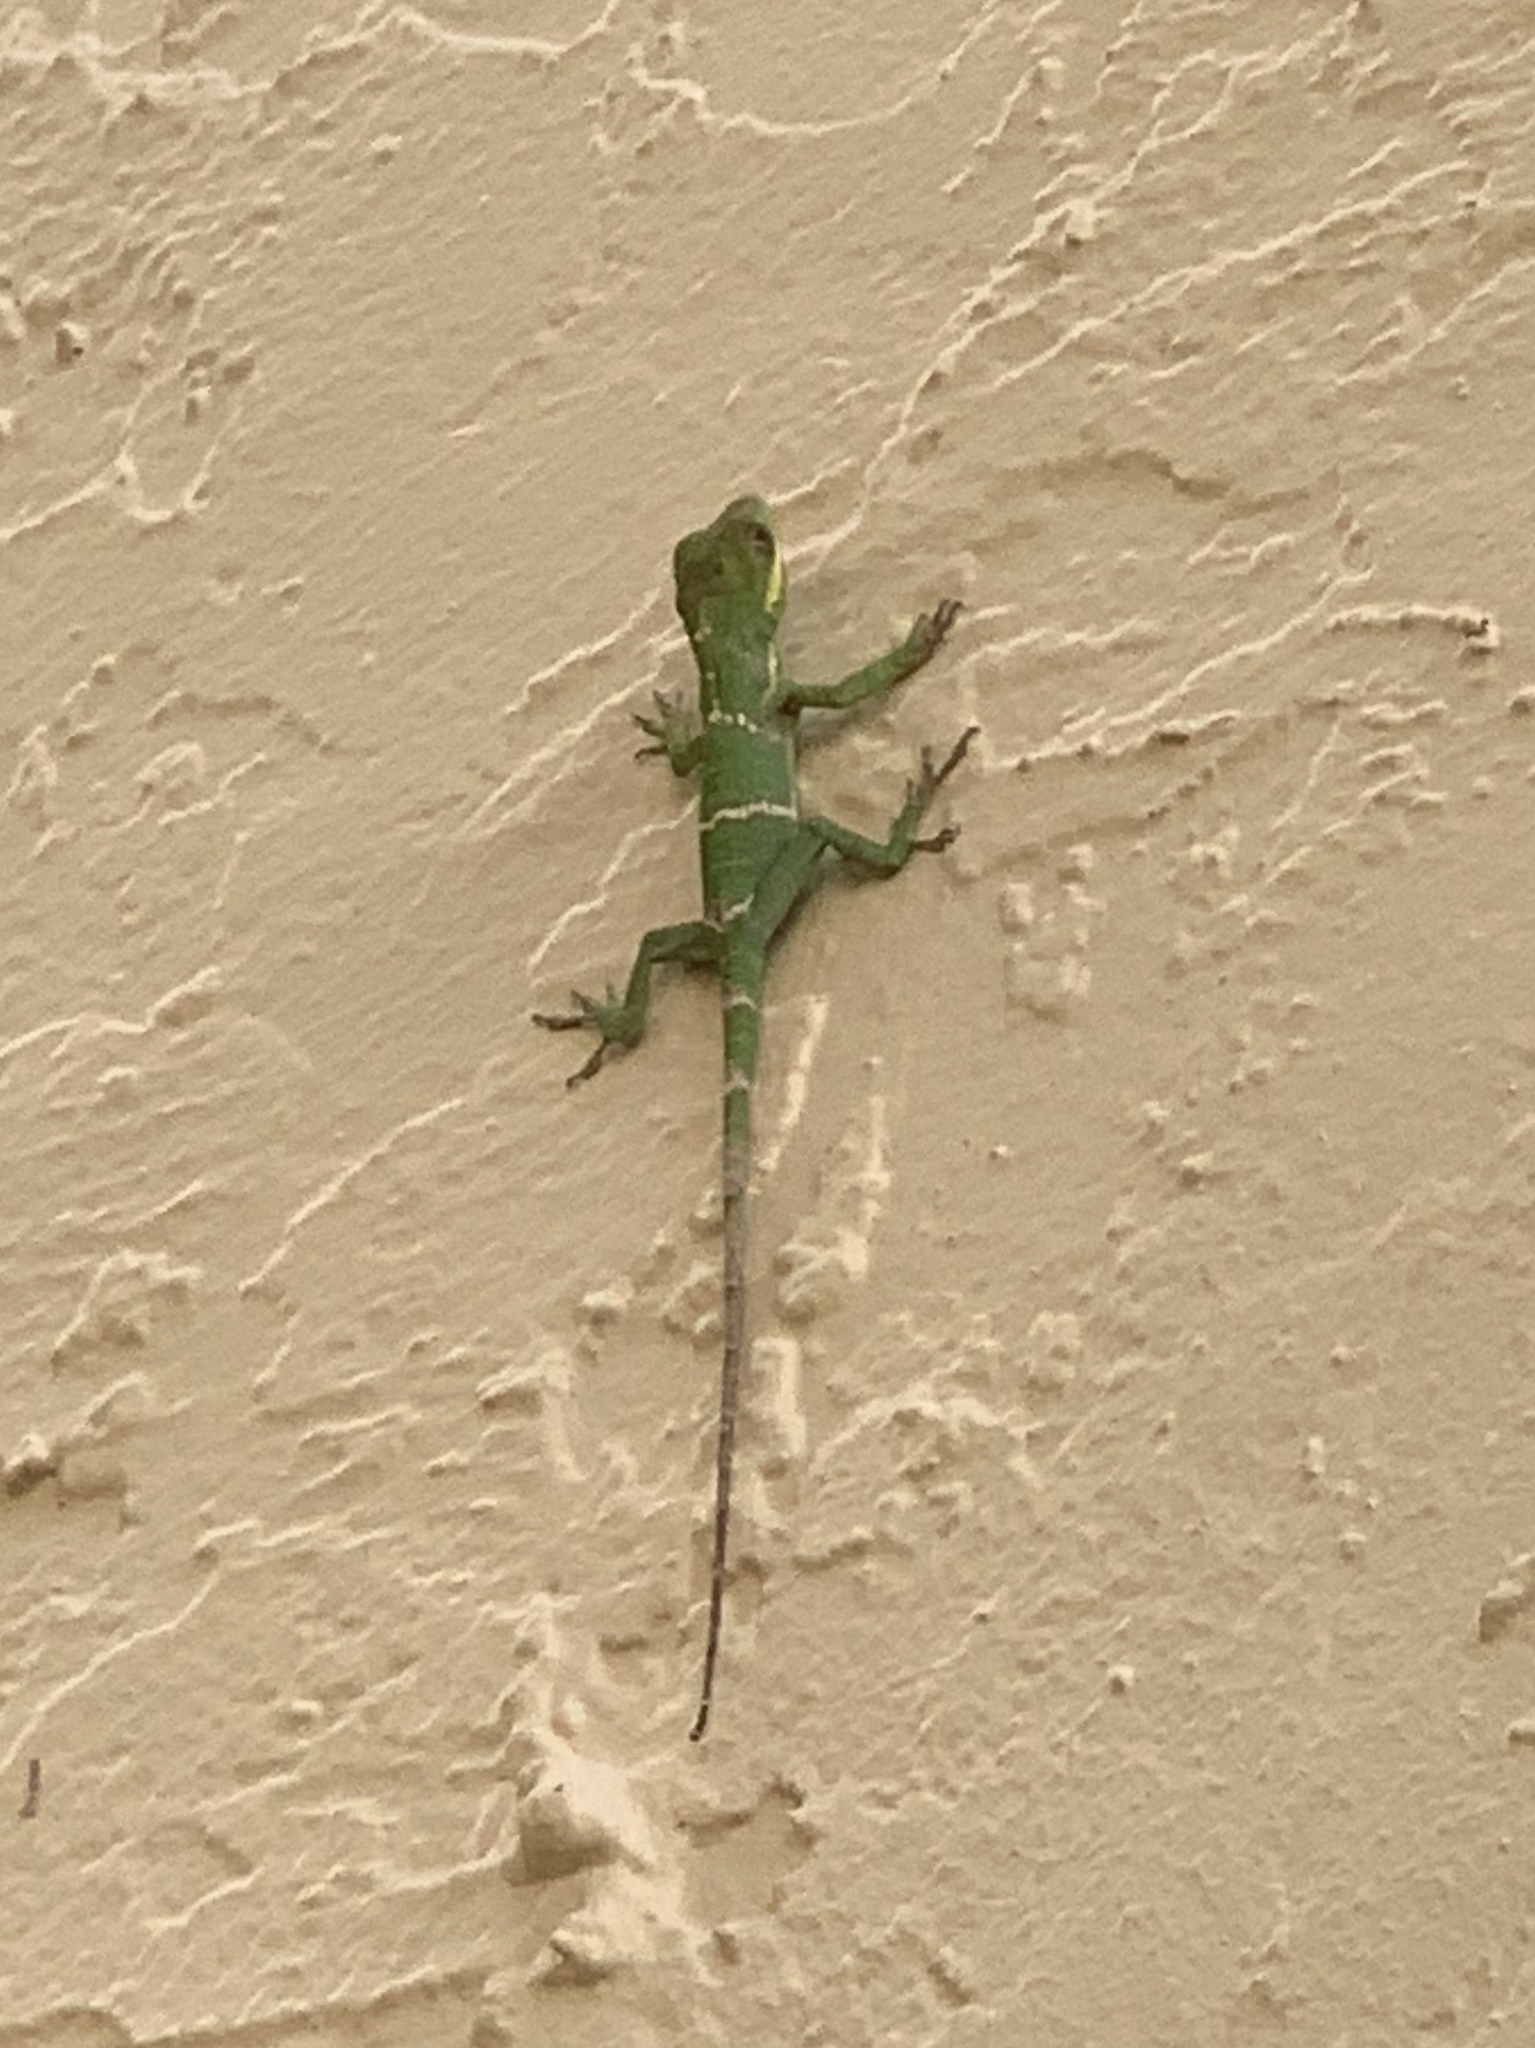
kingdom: Animalia
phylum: Chordata
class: Squamata
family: Dactyloidae
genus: Anolis
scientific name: Anolis equestris
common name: Knight anole
